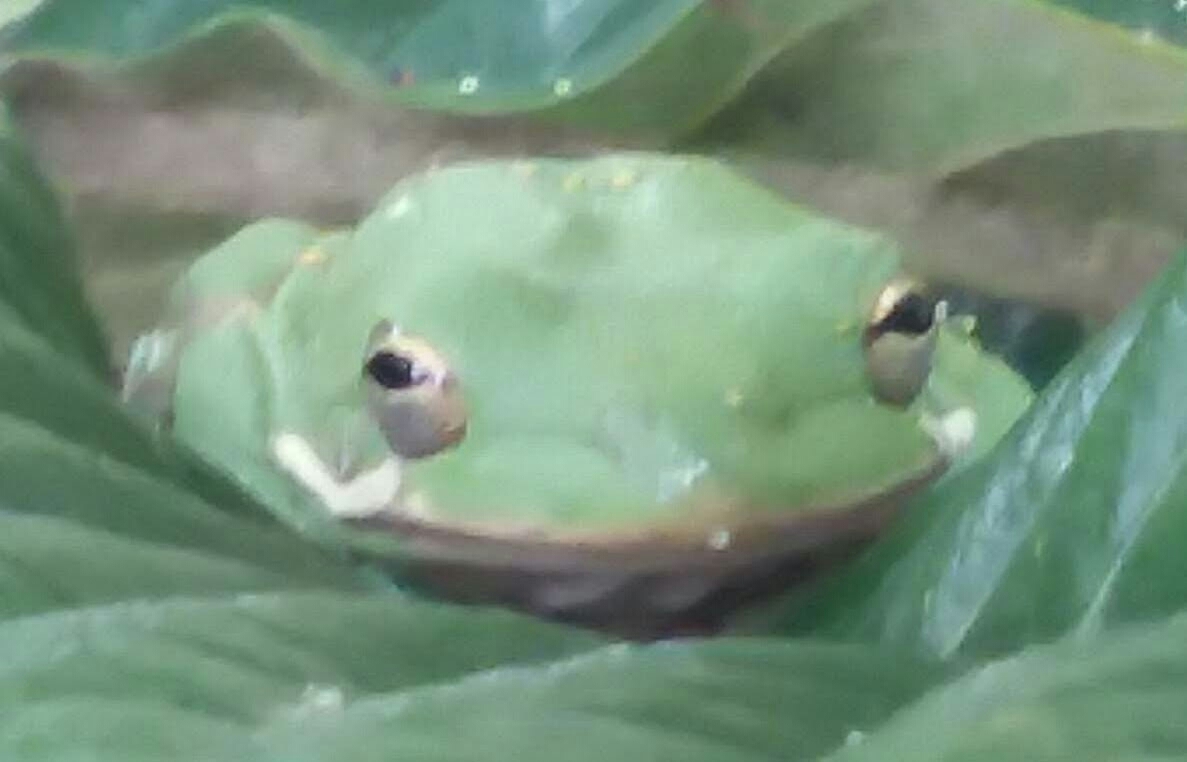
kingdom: Animalia
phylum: Chordata
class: Amphibia
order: Anura
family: Hylidae
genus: Dryophytes
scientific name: Dryophytes cinereus
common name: Green treefrog
